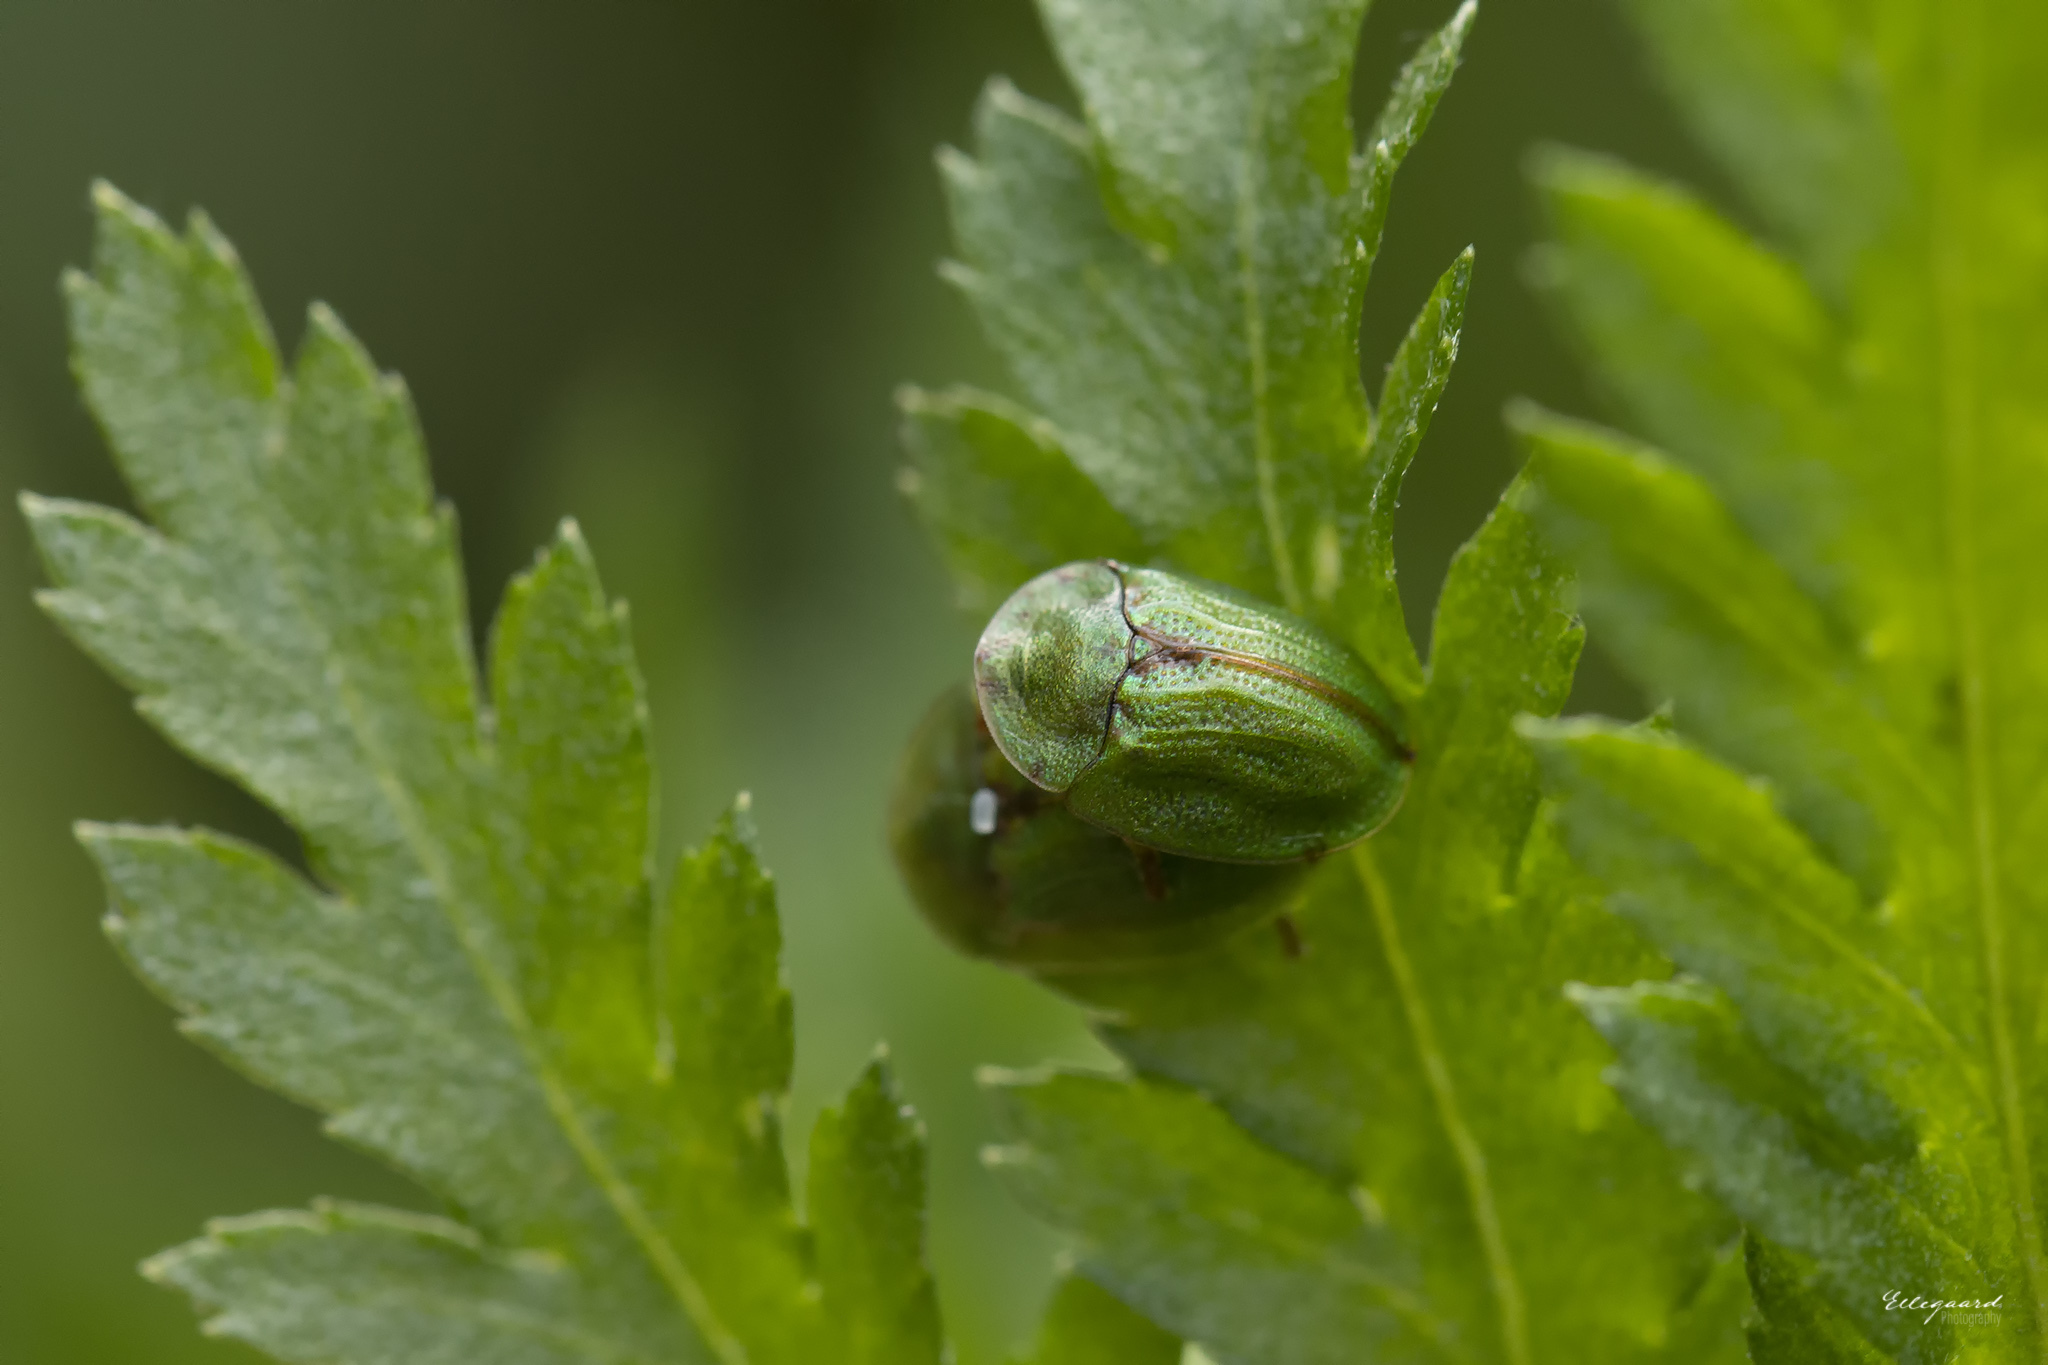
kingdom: Animalia
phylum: Arthropoda
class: Insecta
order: Coleoptera
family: Chrysomelidae
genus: Cassida
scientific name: Cassida stigmatica
